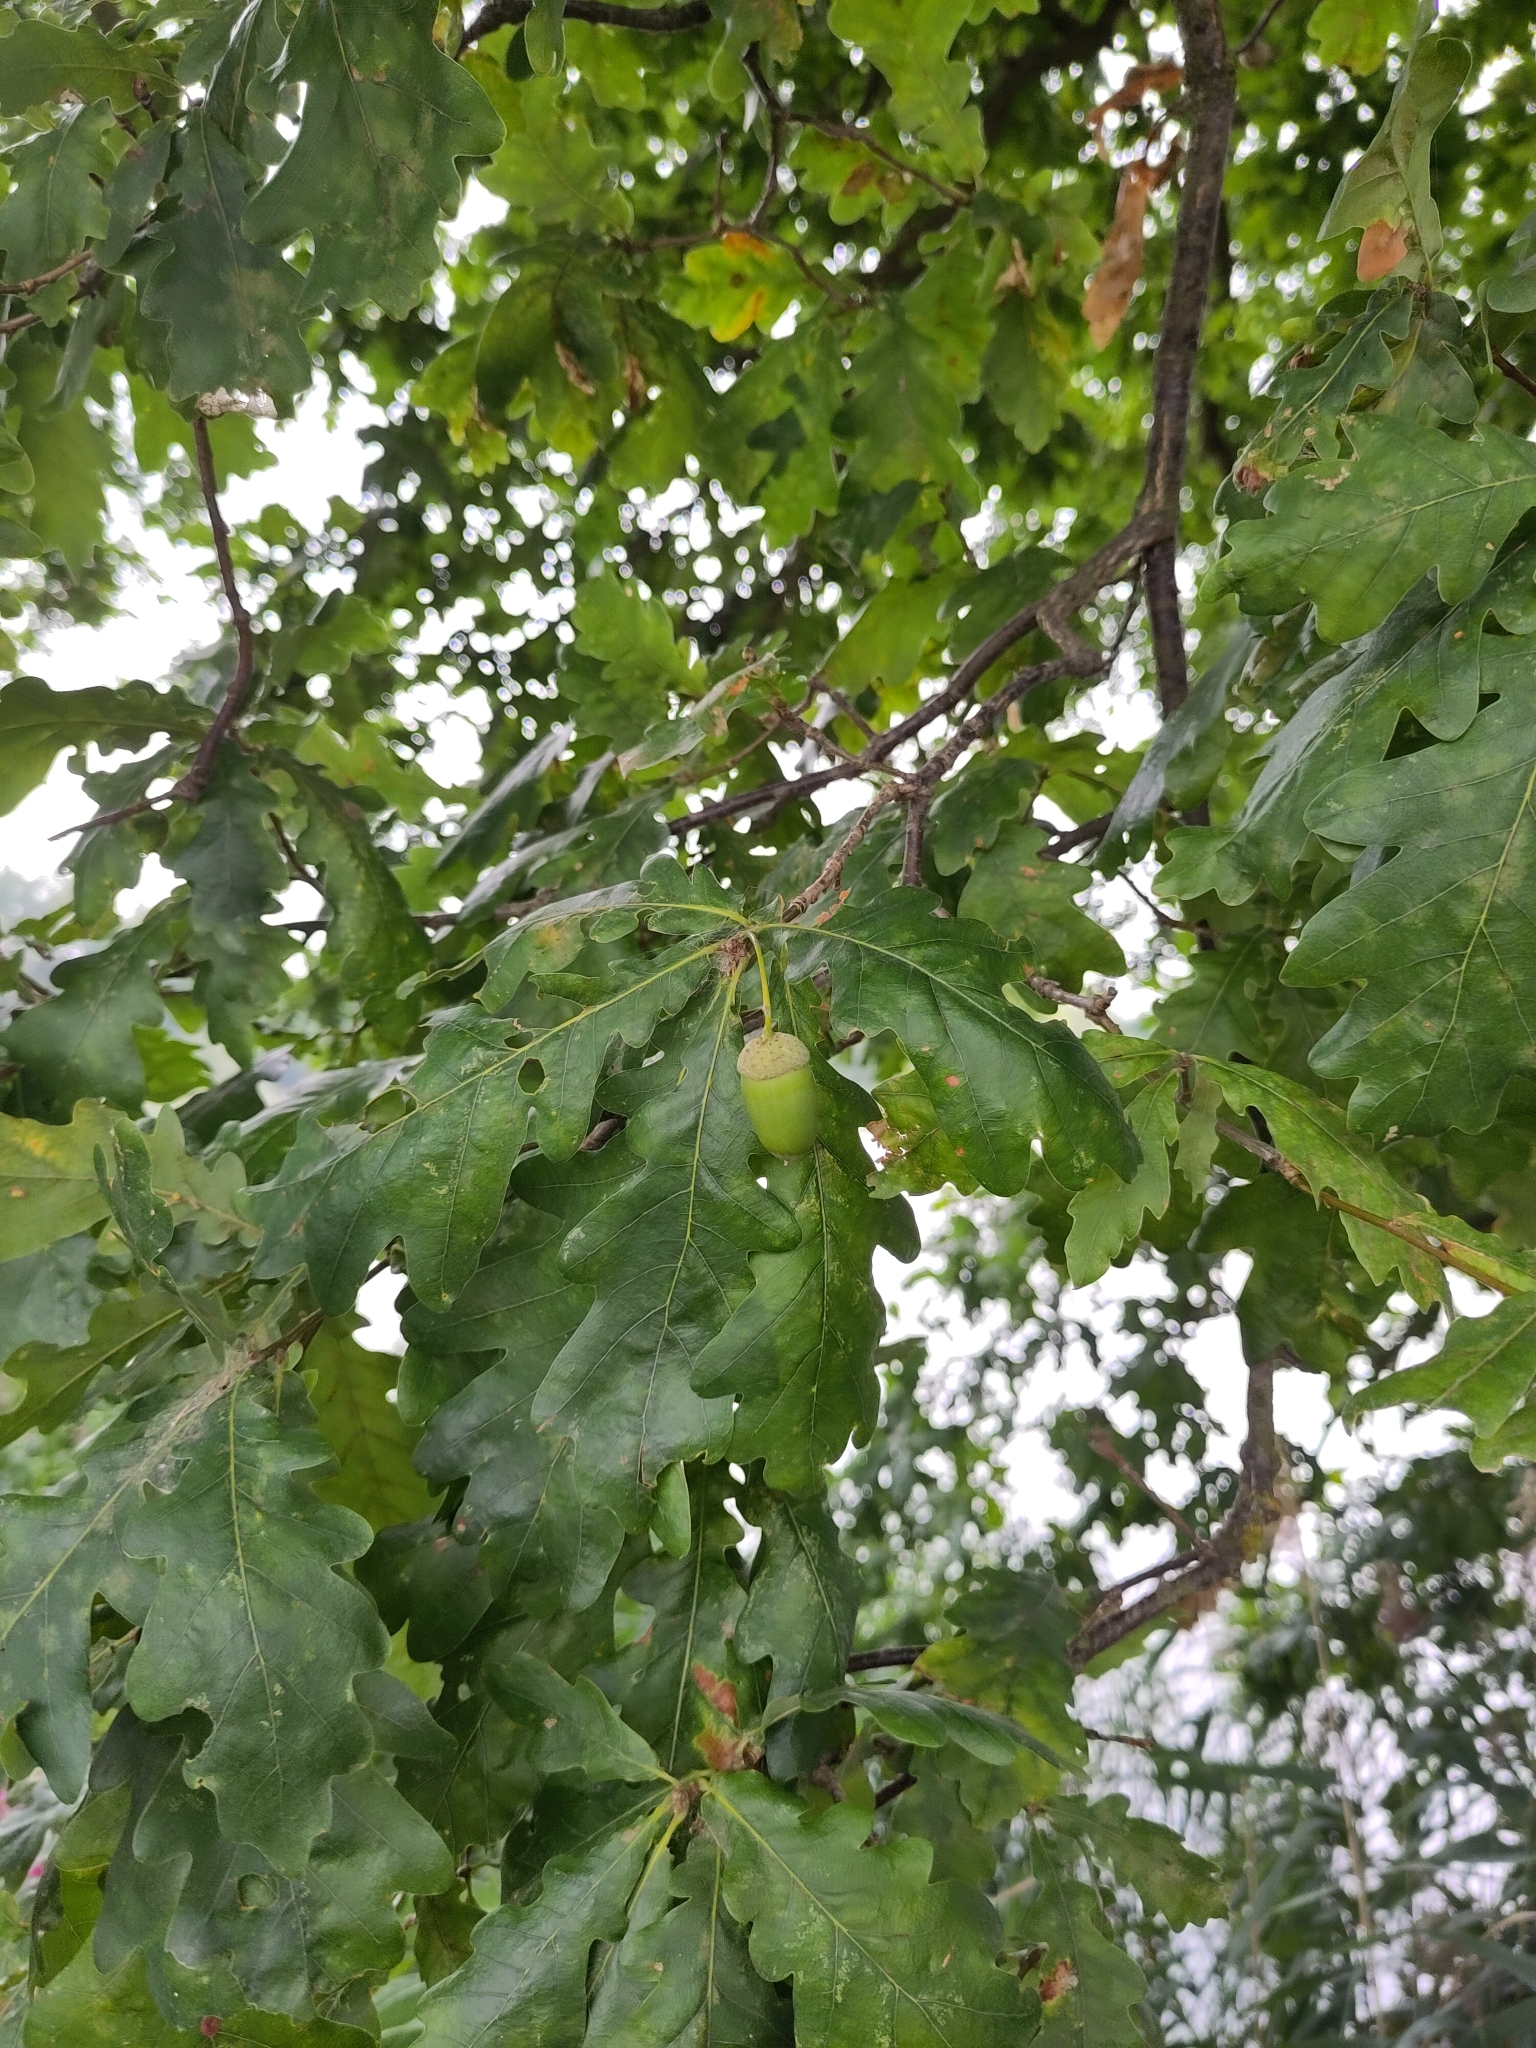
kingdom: Plantae
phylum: Tracheophyta
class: Magnoliopsida
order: Fagales
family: Fagaceae
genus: Quercus
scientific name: Quercus robur
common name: Pedunculate oak
